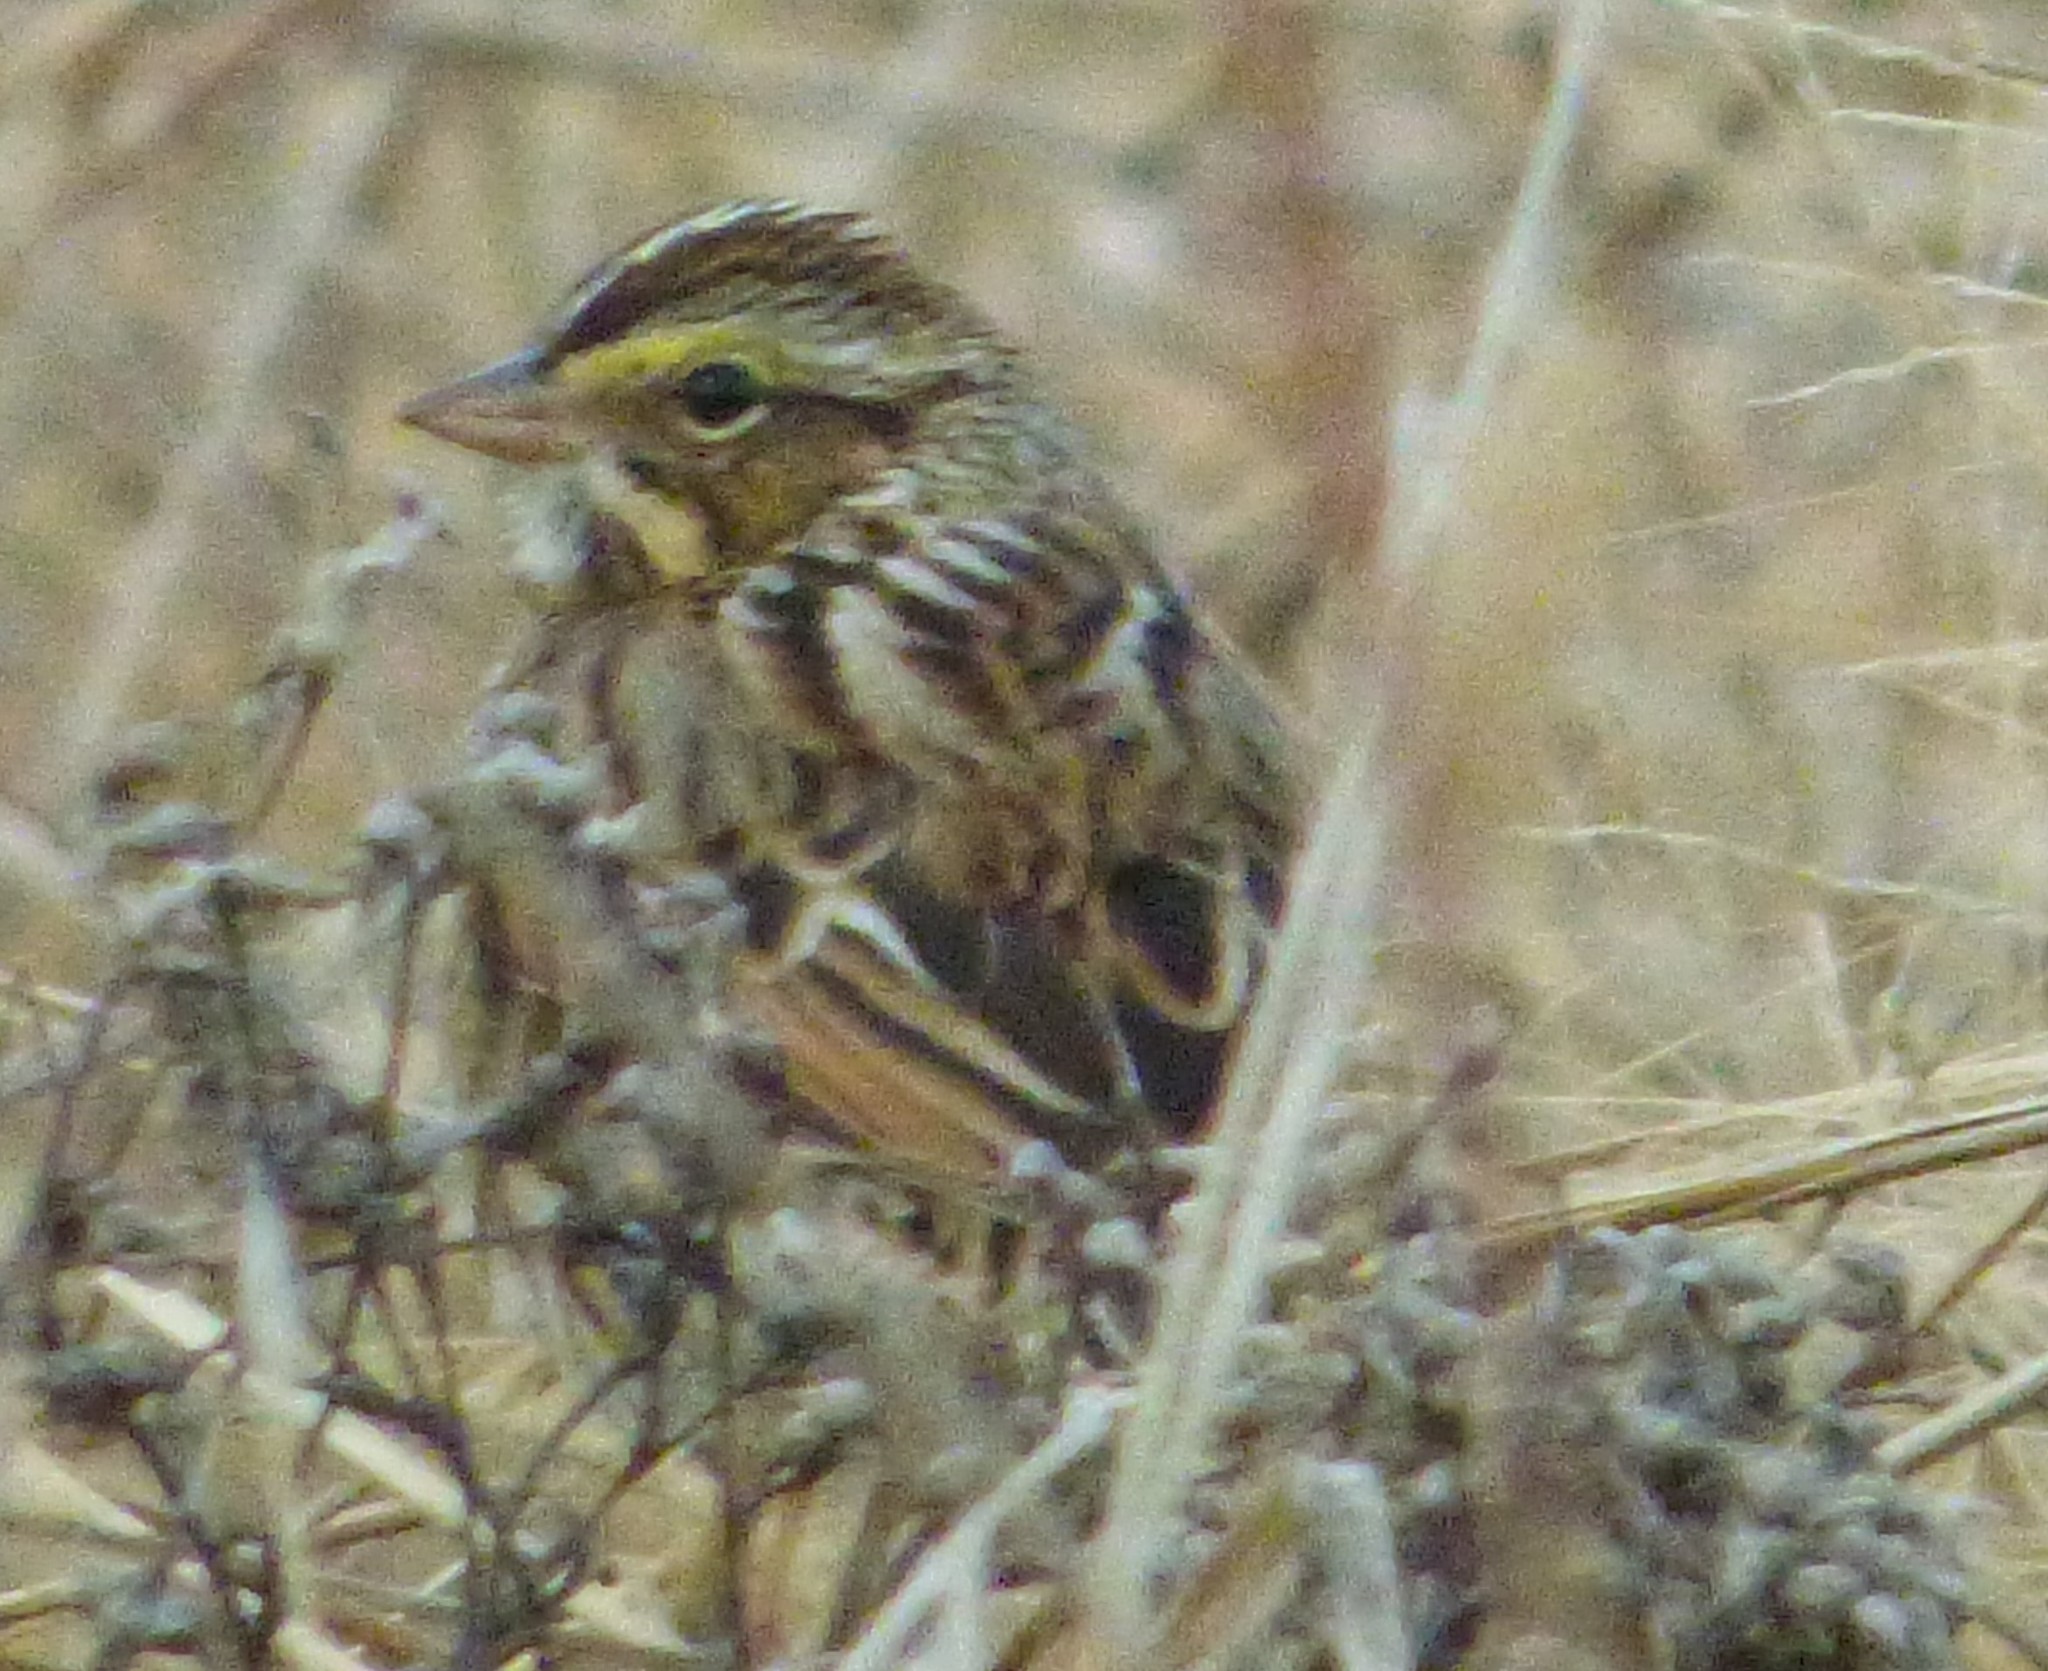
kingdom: Animalia
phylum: Chordata
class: Aves
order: Passeriformes
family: Passerellidae
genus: Passerculus
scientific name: Passerculus sandwichensis
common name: Savannah sparrow
